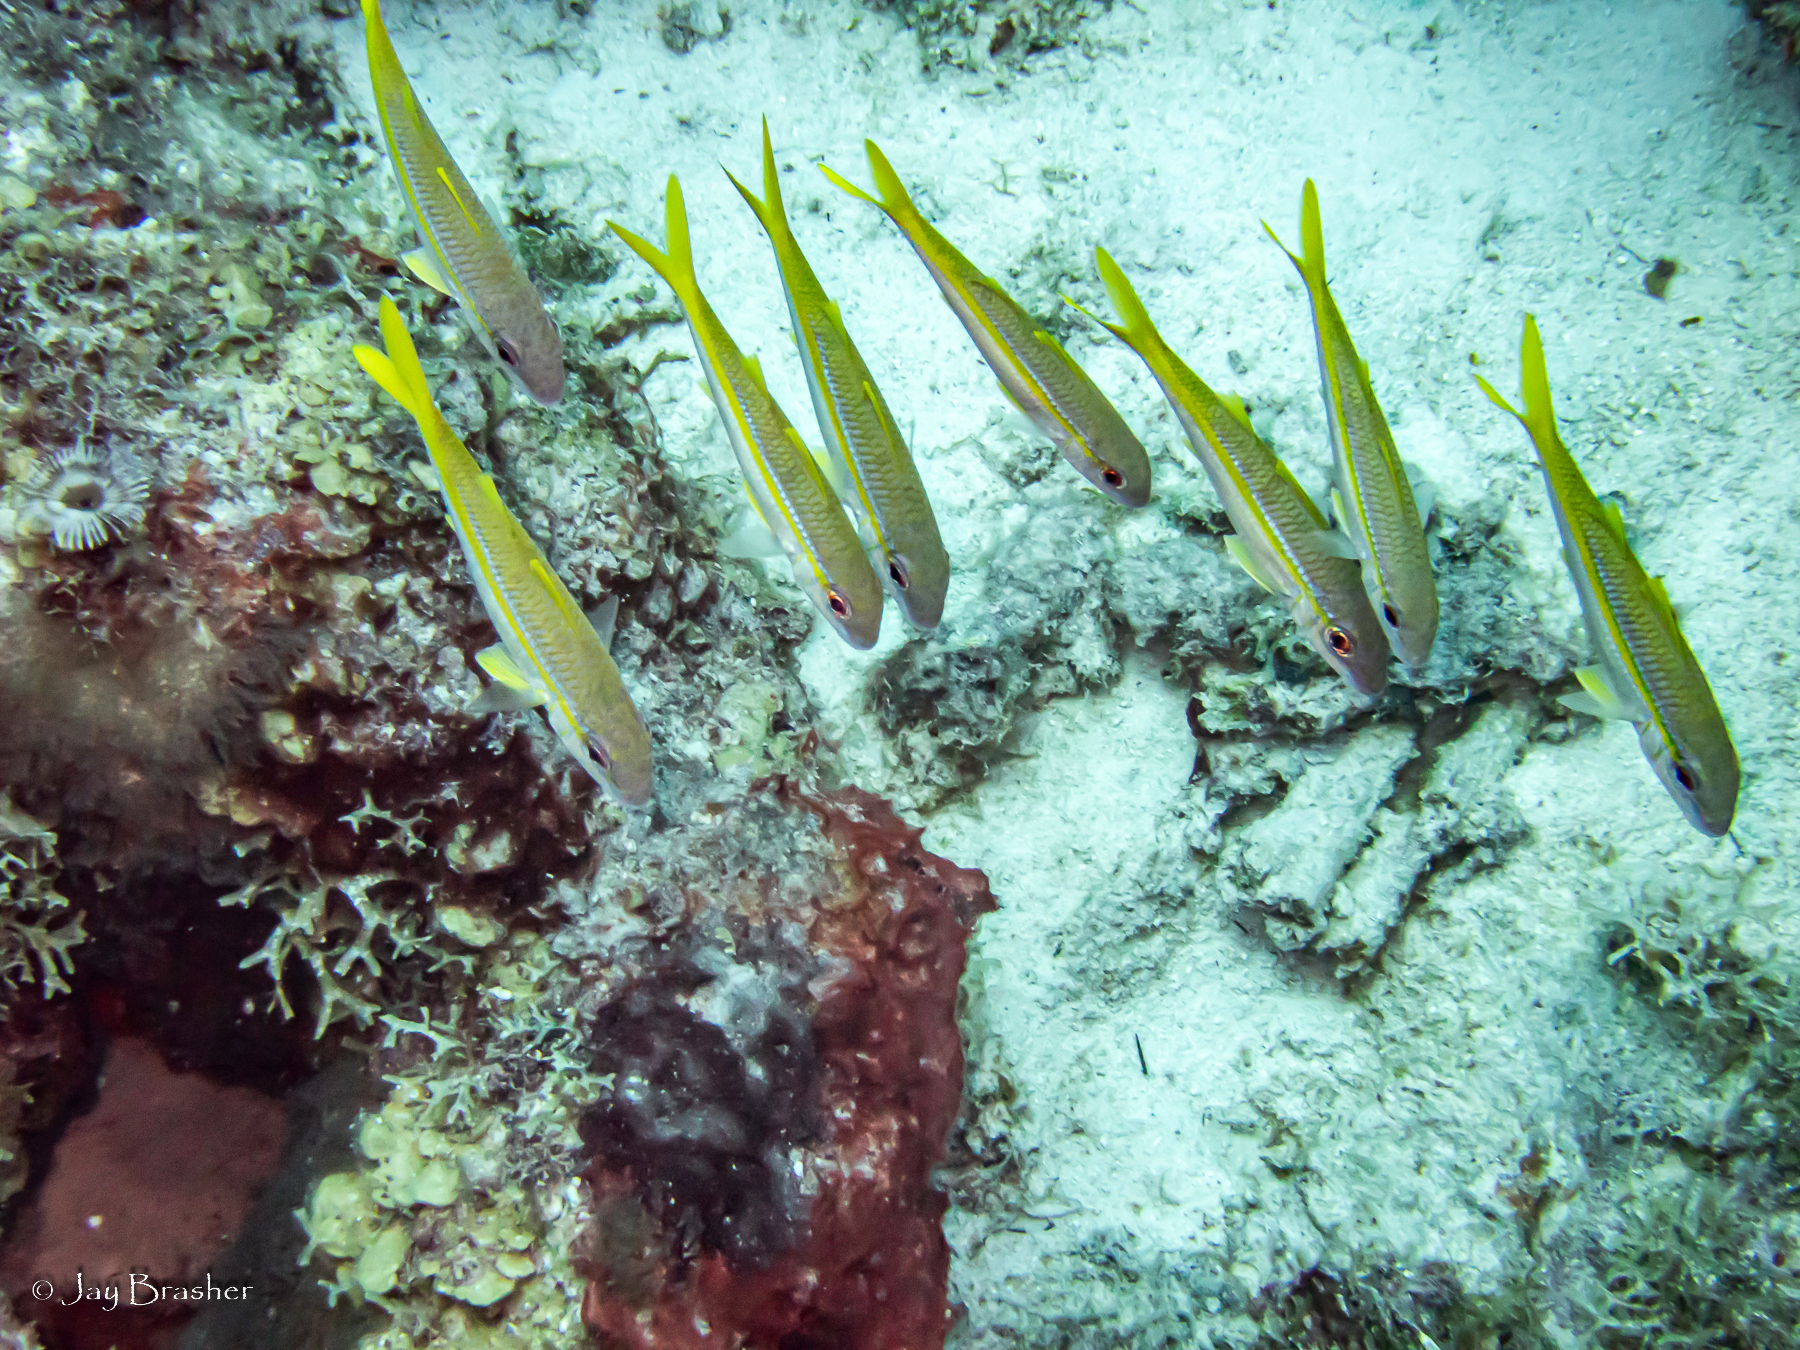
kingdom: Animalia
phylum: Chordata
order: Perciformes
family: Mullidae
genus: Mulloidichthys
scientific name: Mulloidichthys martinicus
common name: Yellow goatfish
